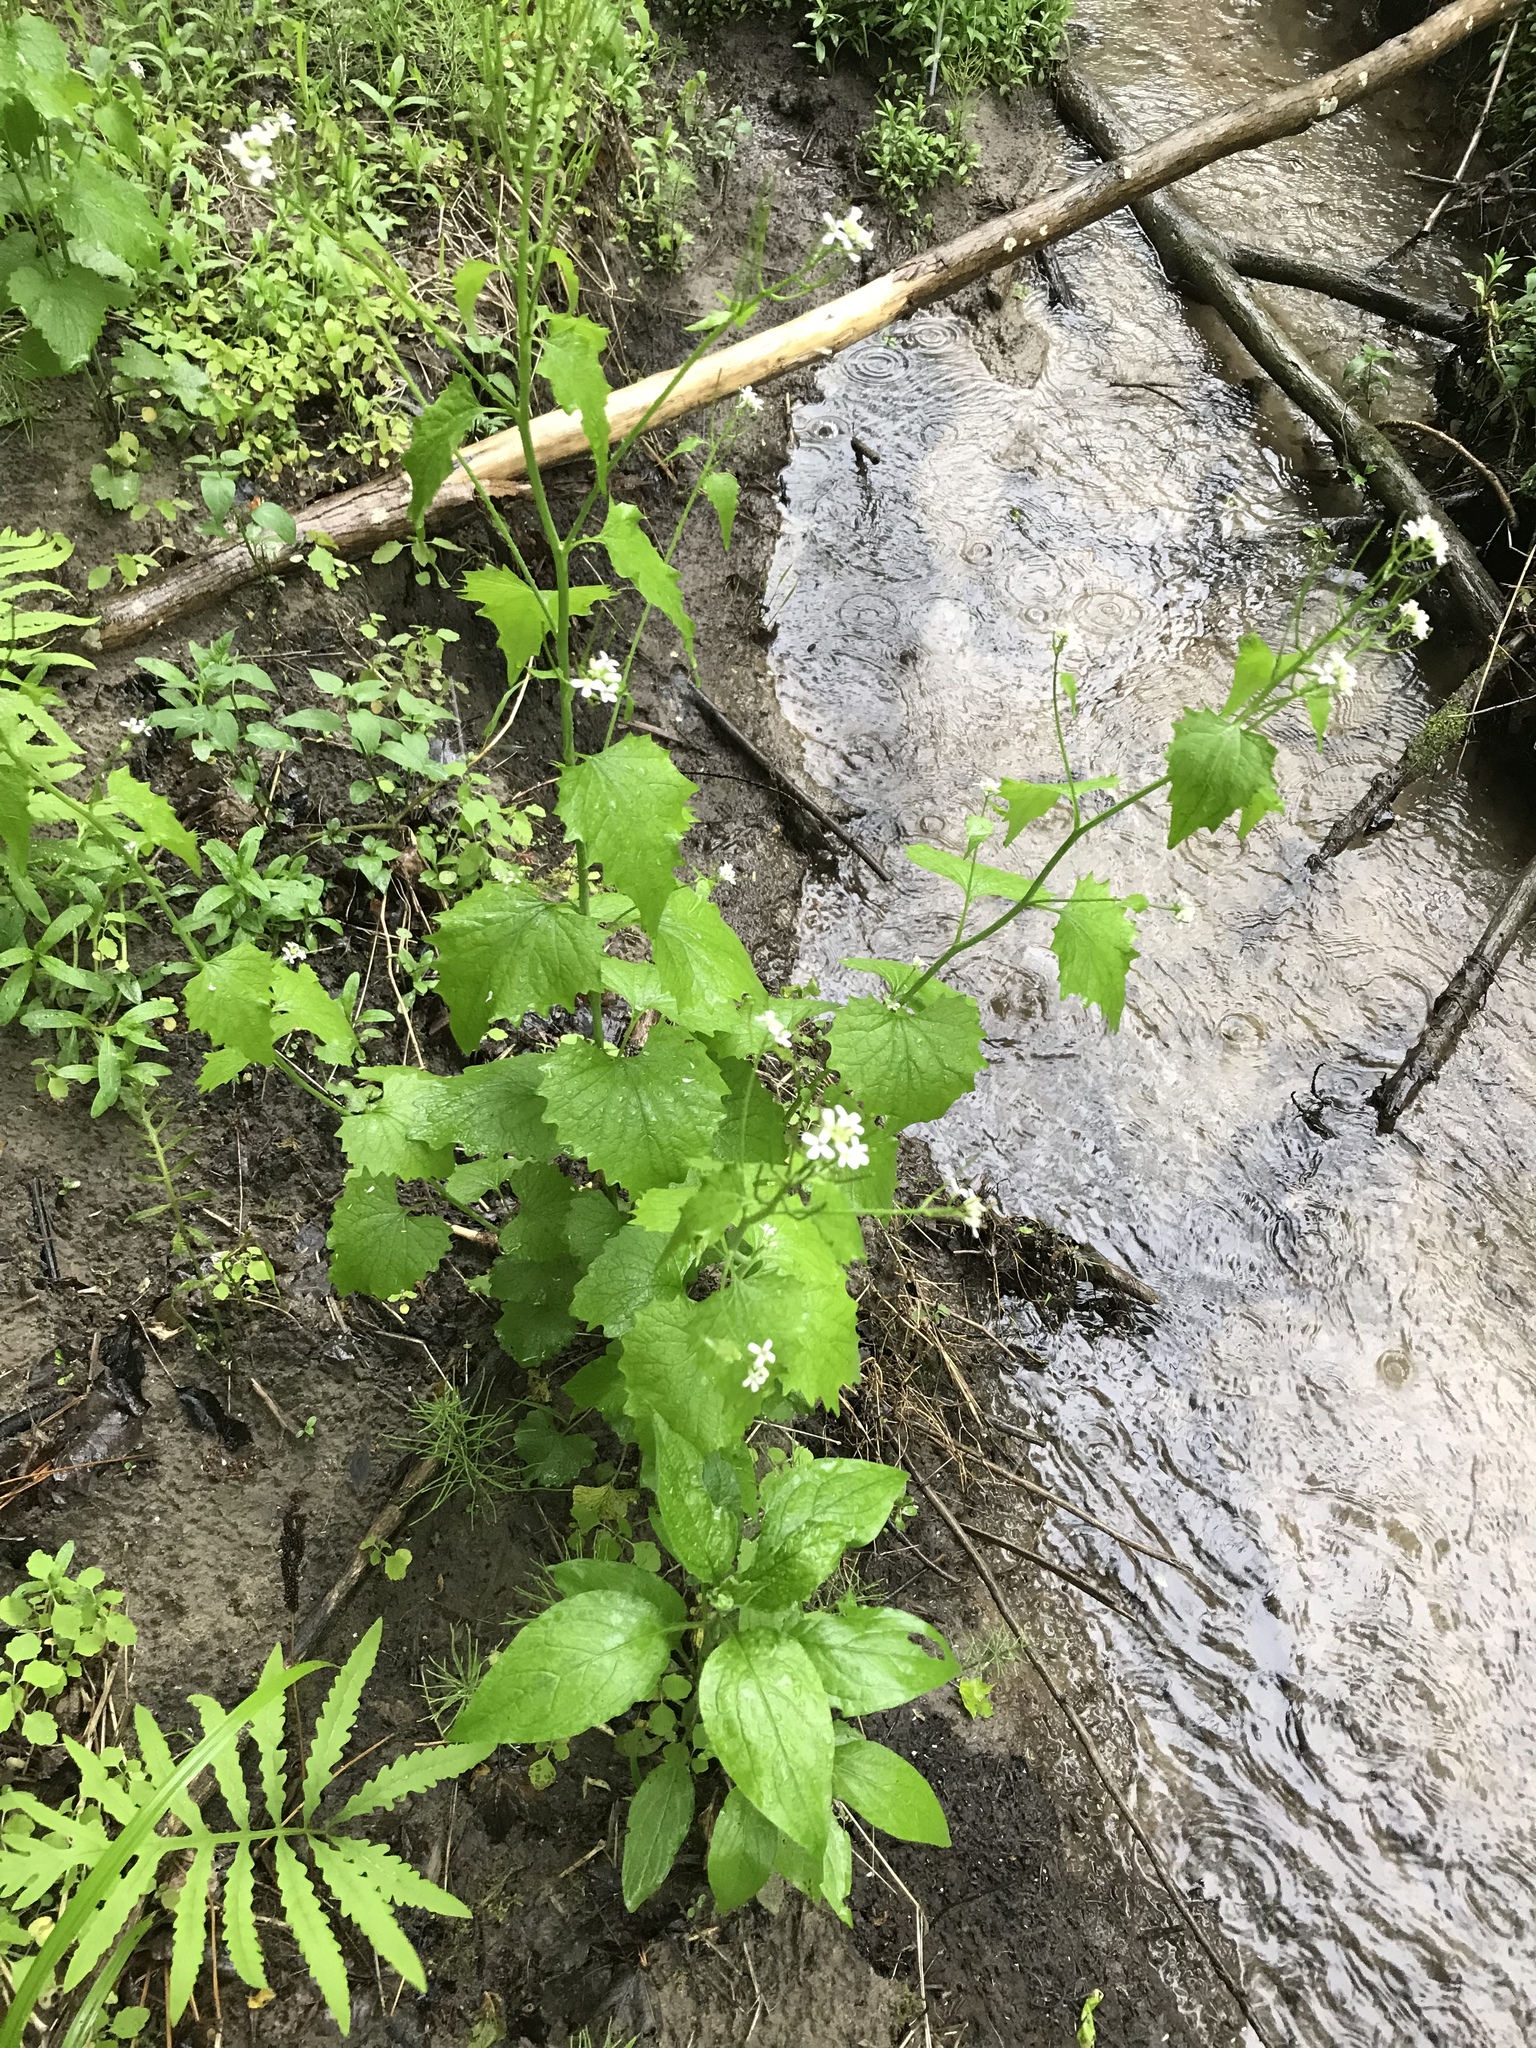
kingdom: Plantae
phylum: Tracheophyta
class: Magnoliopsida
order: Brassicales
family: Brassicaceae
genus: Alliaria
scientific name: Alliaria petiolata
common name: Garlic mustard
